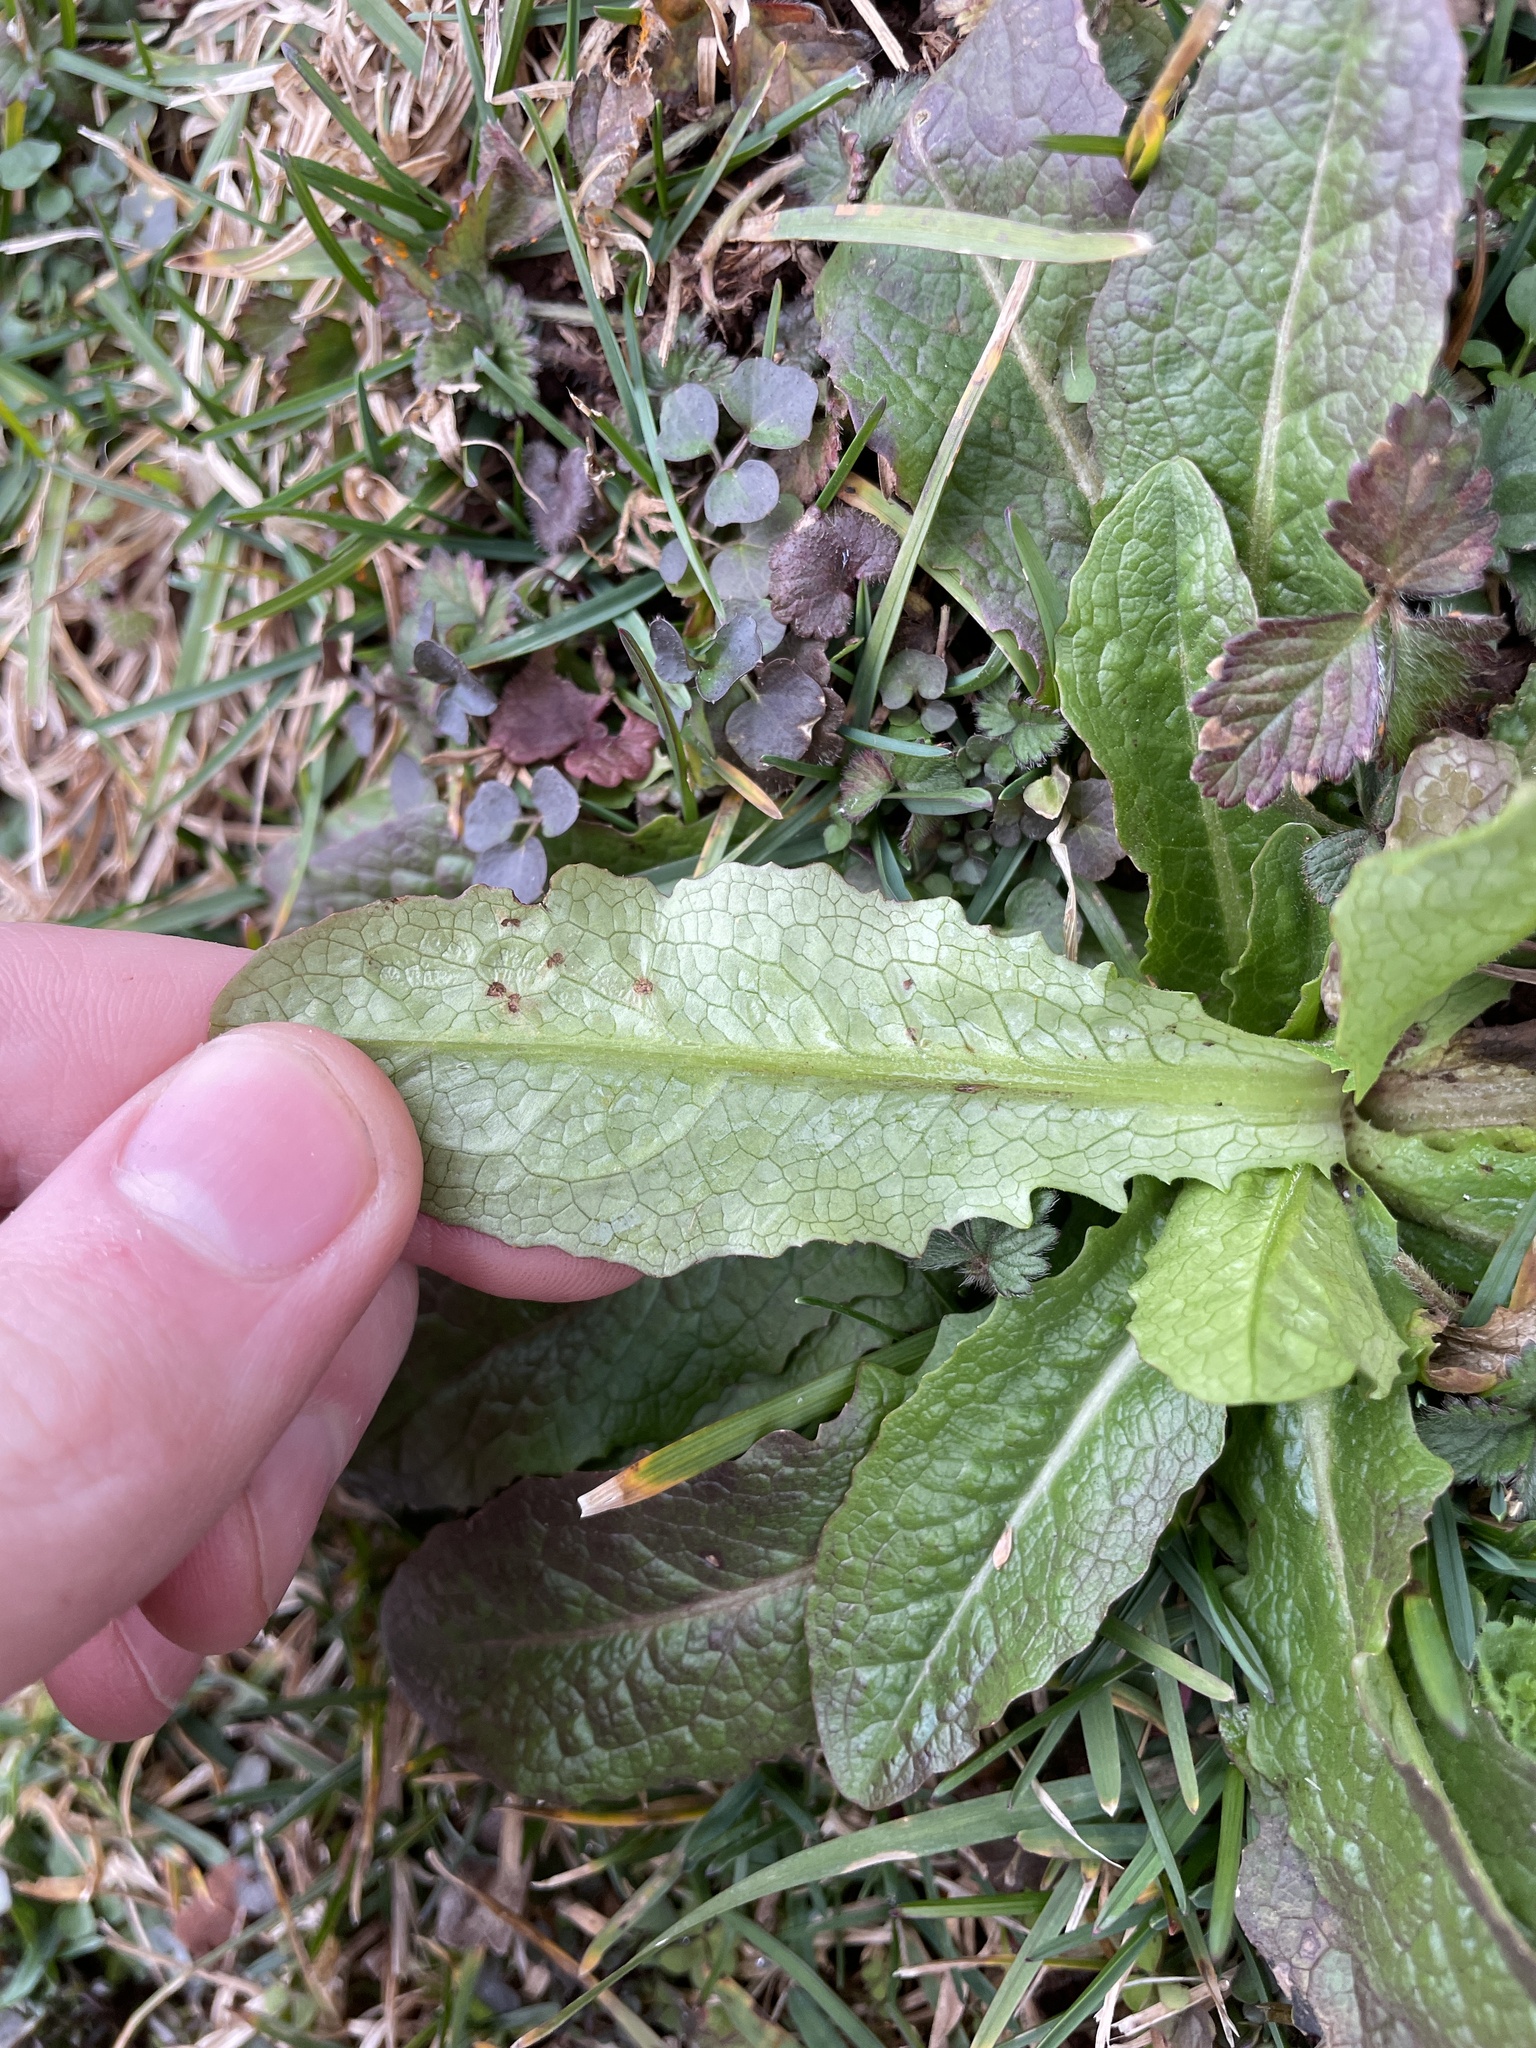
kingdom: Plantae
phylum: Tracheophyta
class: Magnoliopsida
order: Asterales
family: Asteraceae
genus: Lactuca
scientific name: Lactuca serriola
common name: Prickly lettuce
